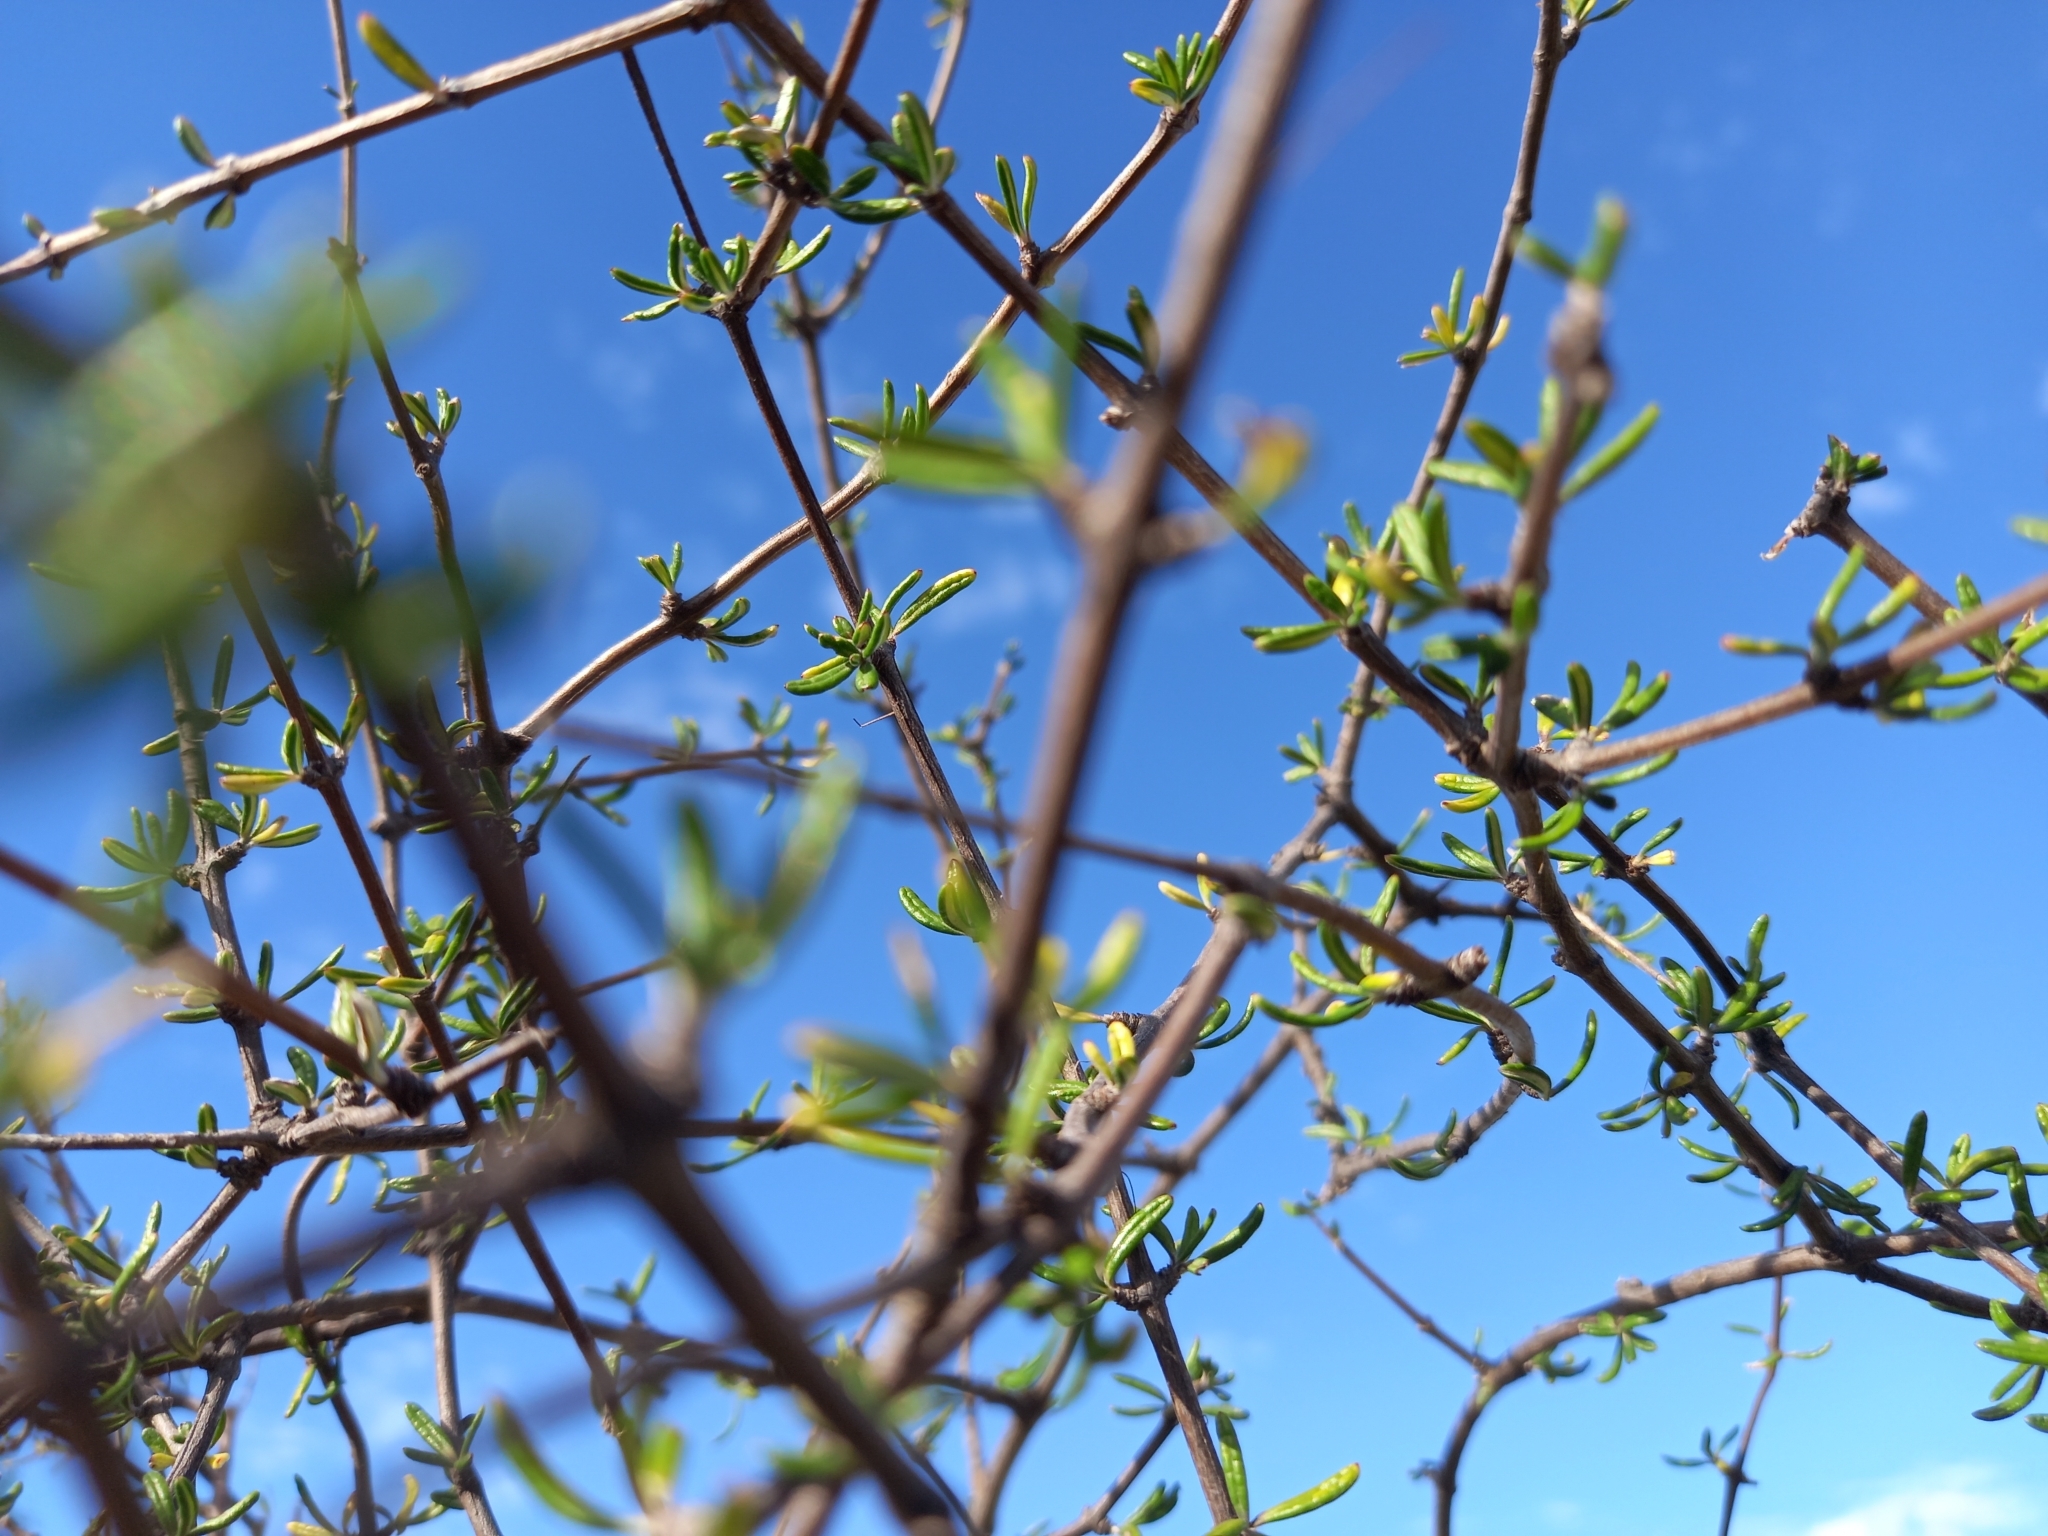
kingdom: Plantae
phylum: Tracheophyta
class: Magnoliopsida
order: Asterales
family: Asteraceae
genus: Olearia
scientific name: Olearia bullata
